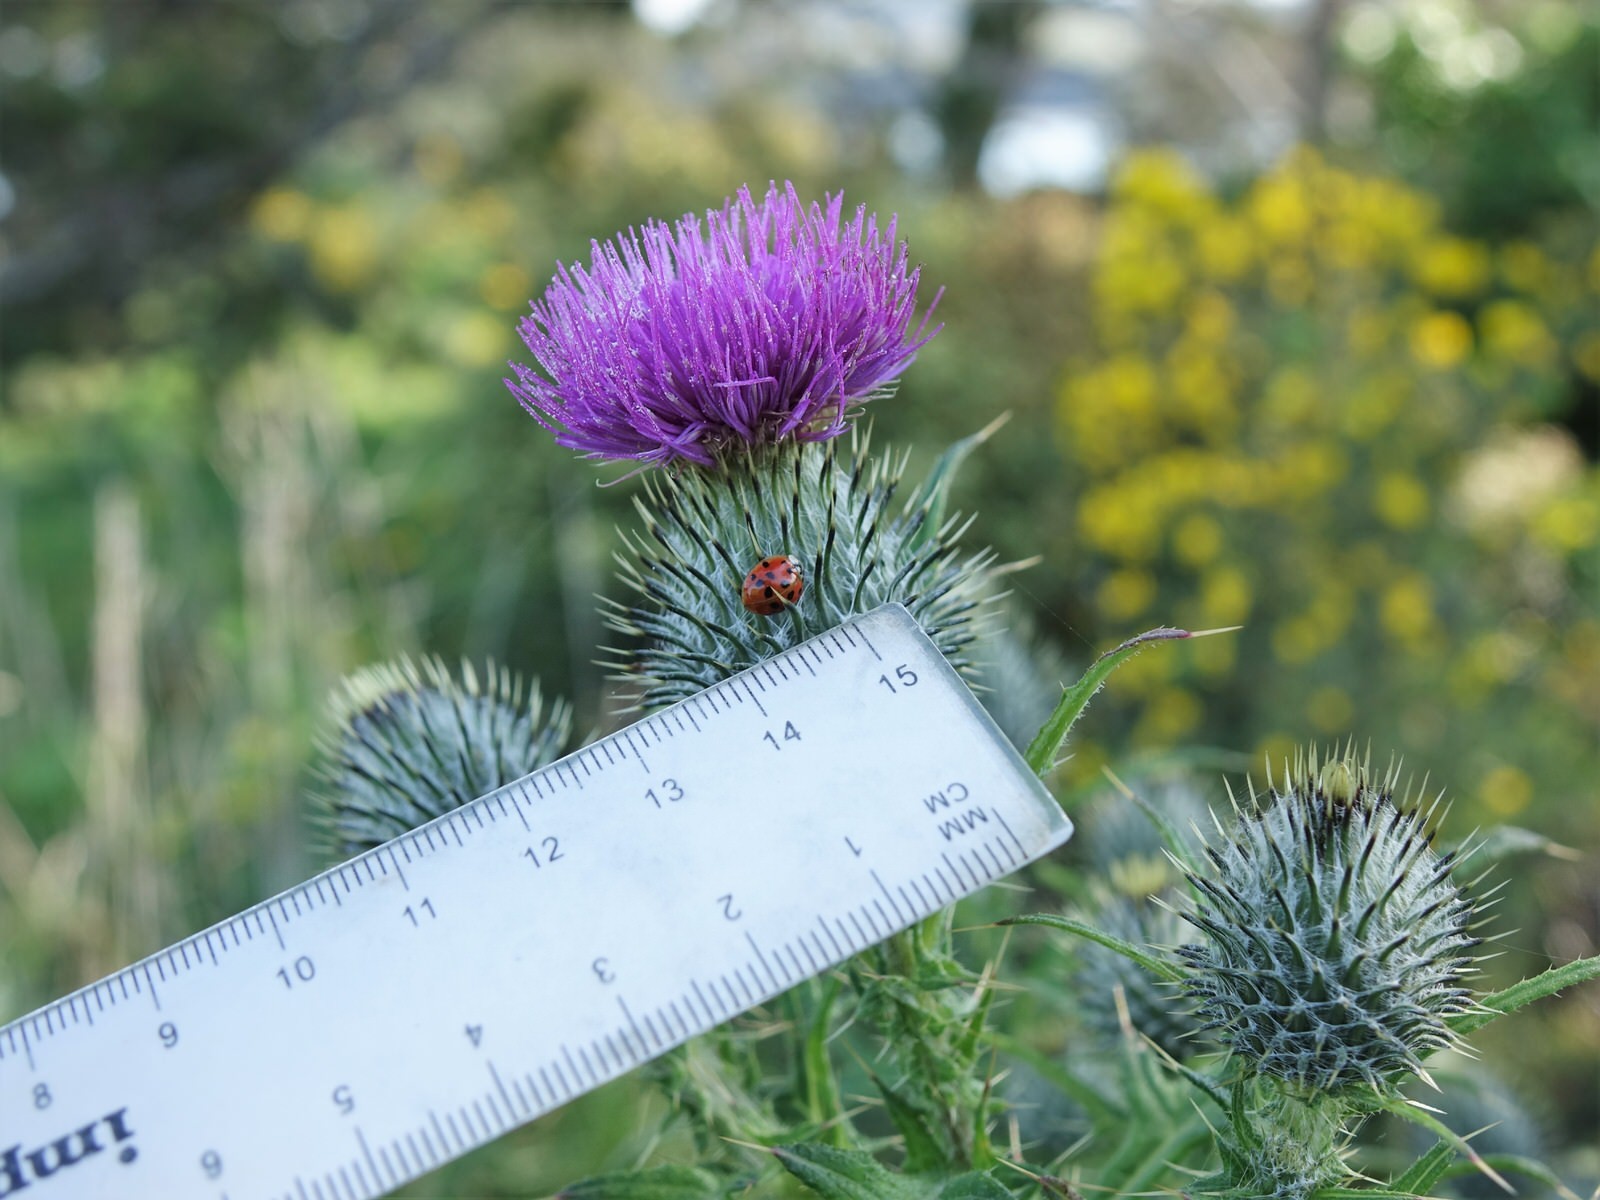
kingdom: Animalia
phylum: Arthropoda
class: Insecta
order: Coleoptera
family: Coccinellidae
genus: Harmonia
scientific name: Harmonia axyridis
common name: Harlequin ladybird
